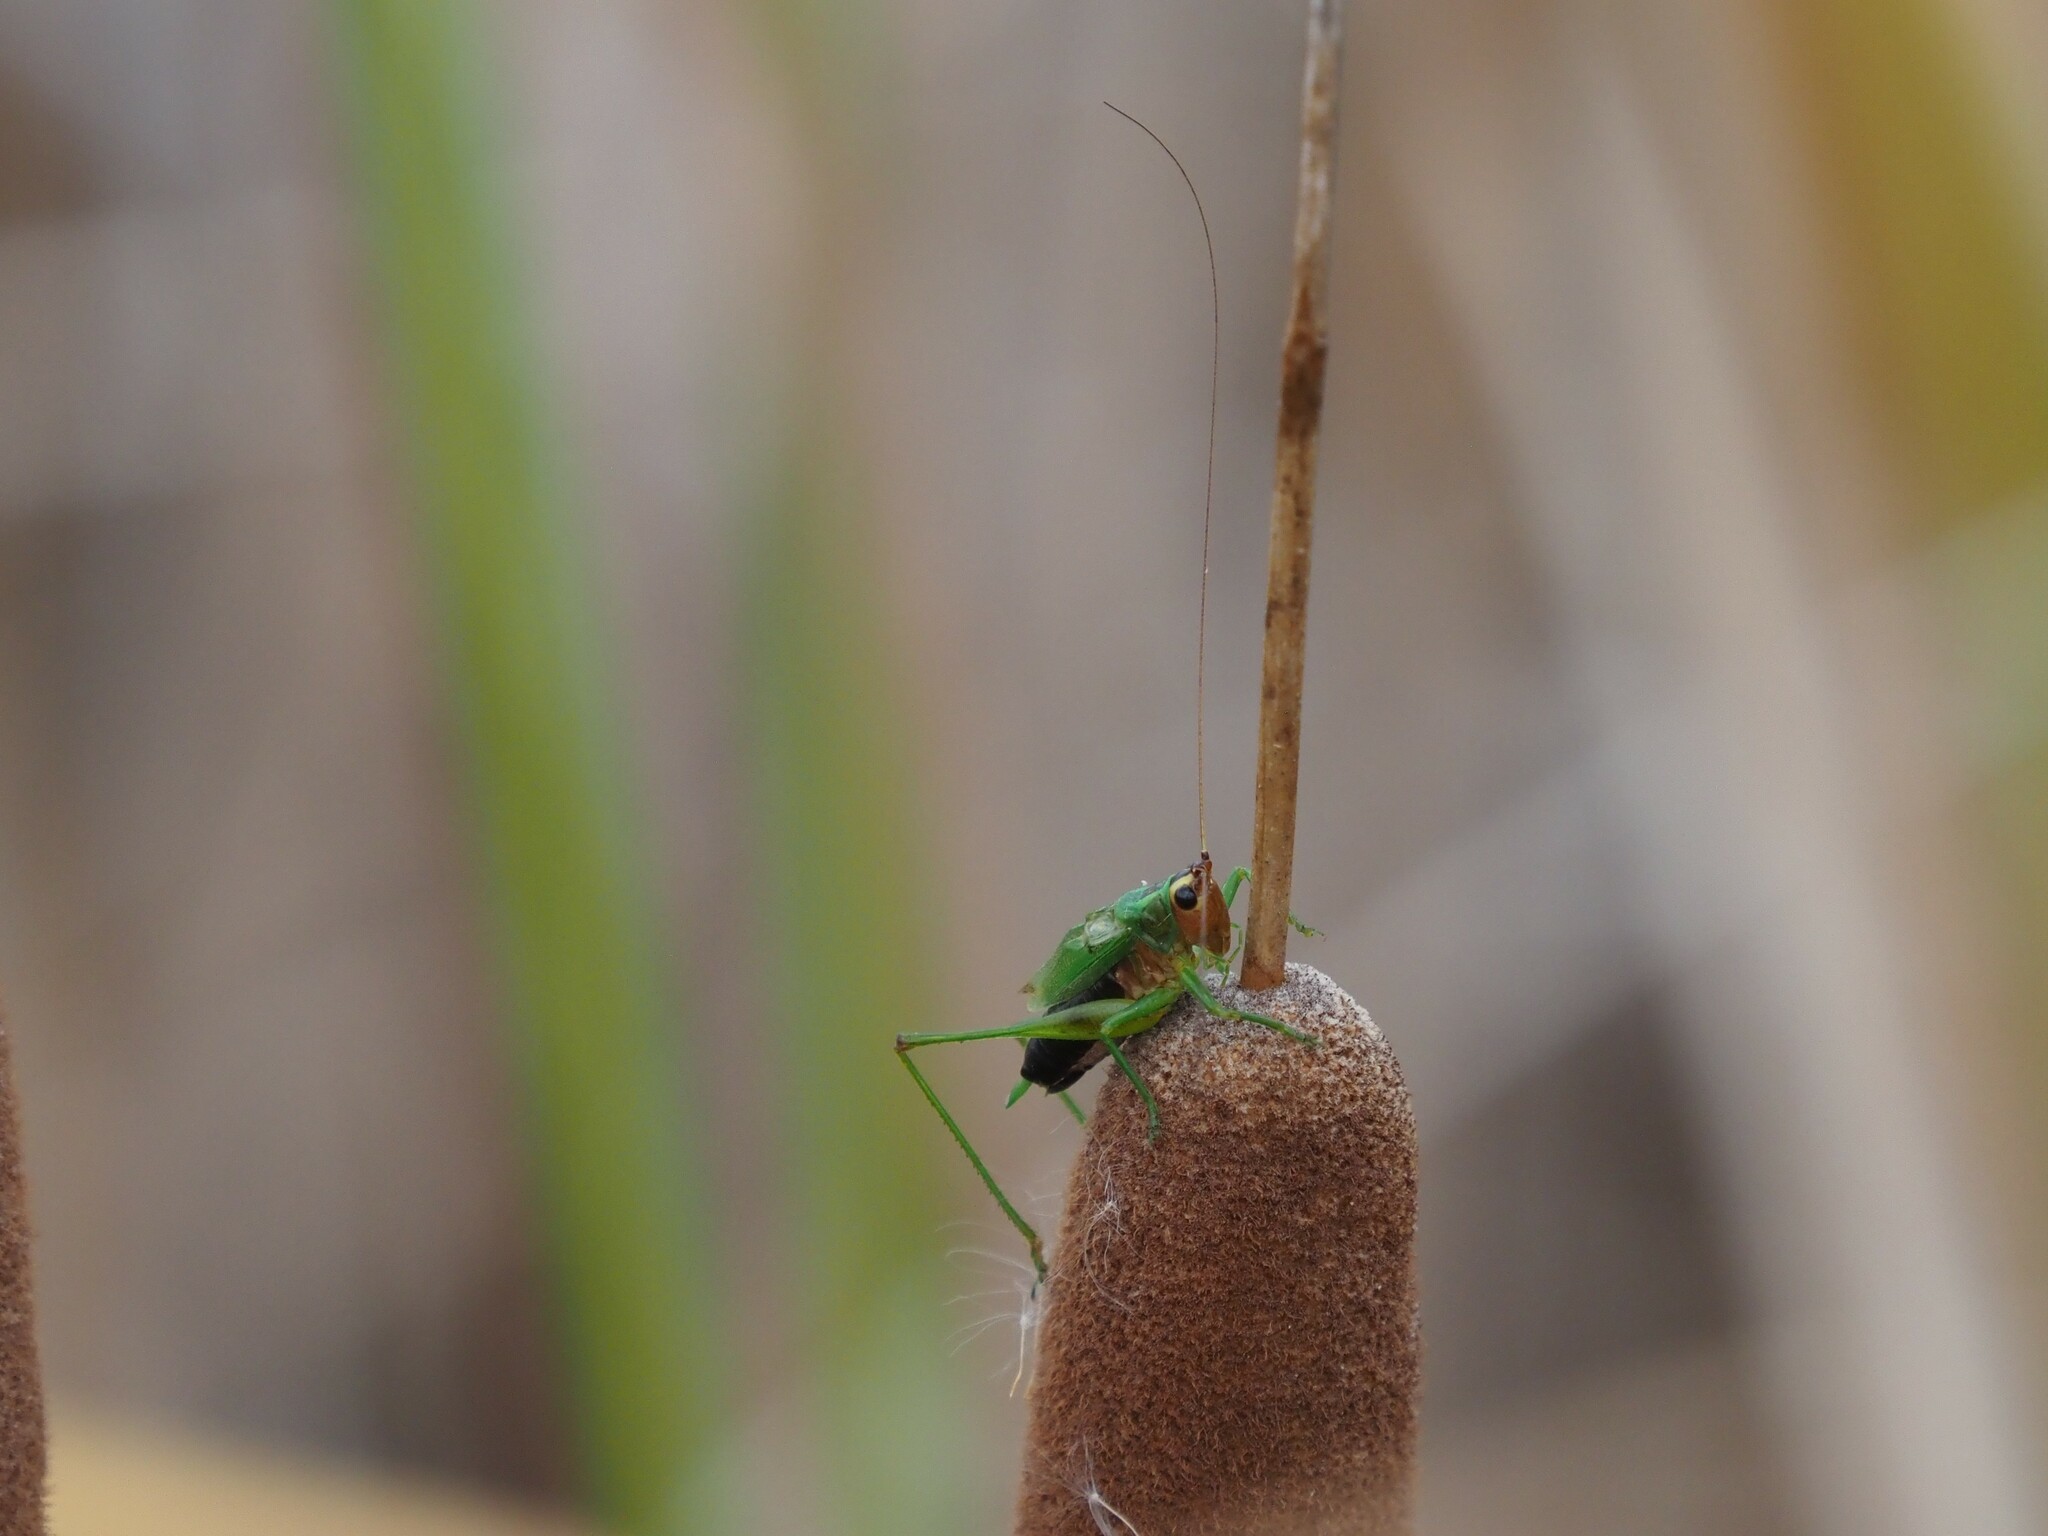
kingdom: Animalia
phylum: Arthropoda
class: Insecta
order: Orthoptera
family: Tettigoniidae
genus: Conocephalus
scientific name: Conocephalus nigropleurum
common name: Black-sided meadow katydid
